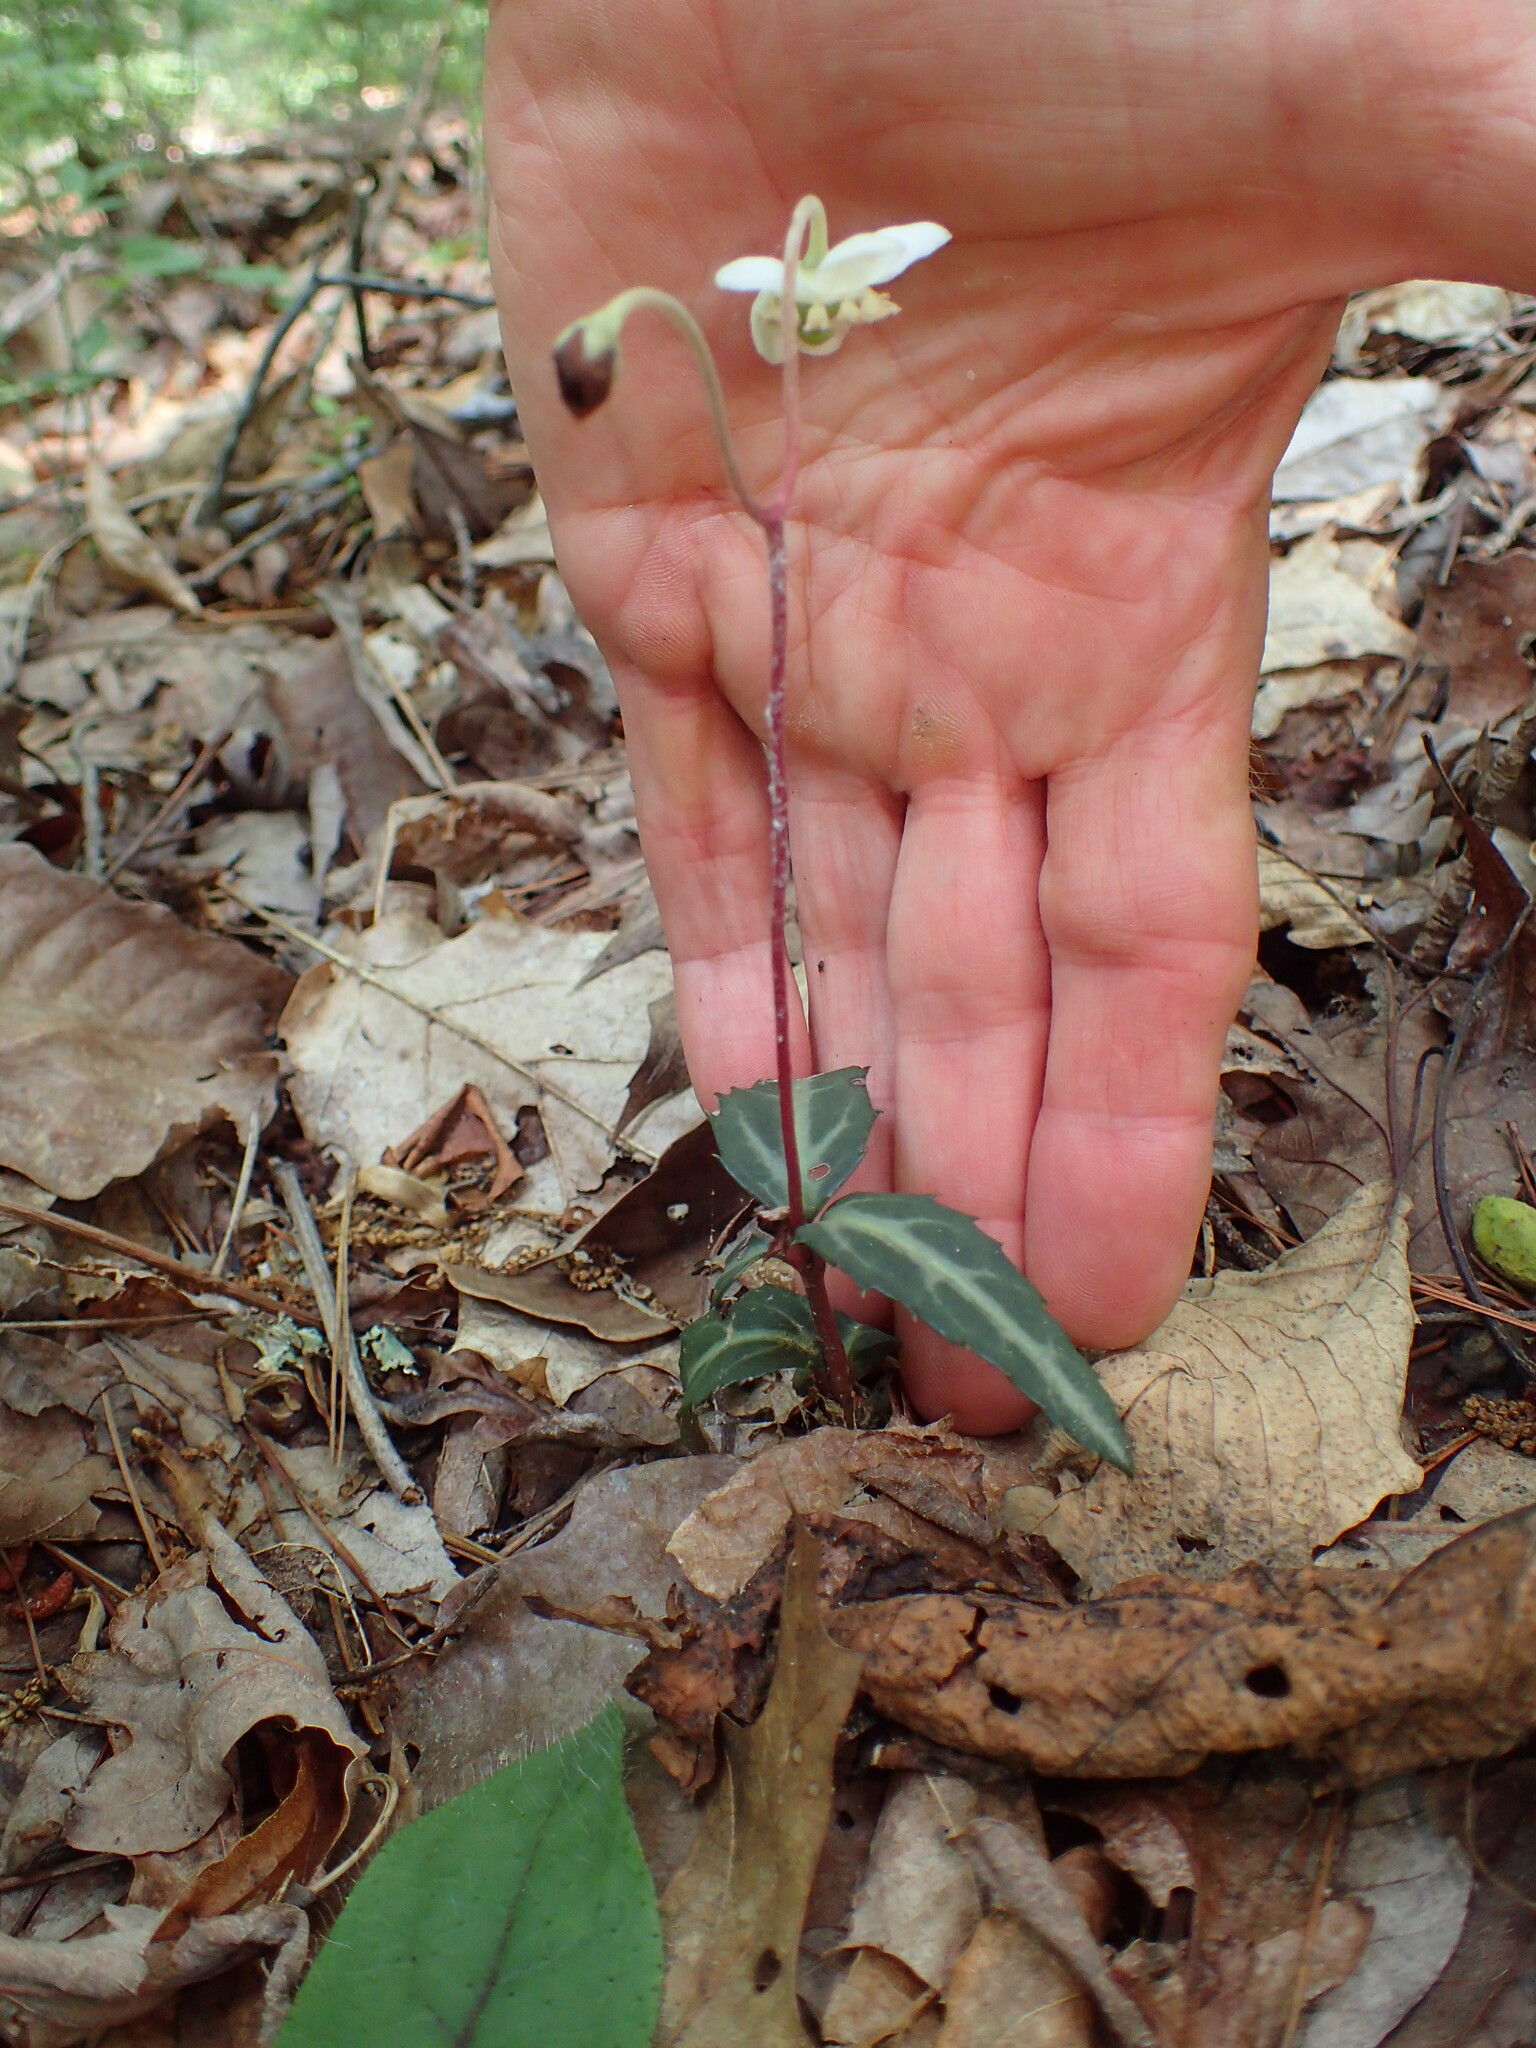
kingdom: Plantae
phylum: Tracheophyta
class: Magnoliopsida
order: Ericales
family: Ericaceae
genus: Chimaphila
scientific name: Chimaphila maculata
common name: Spotted pipsissewa
